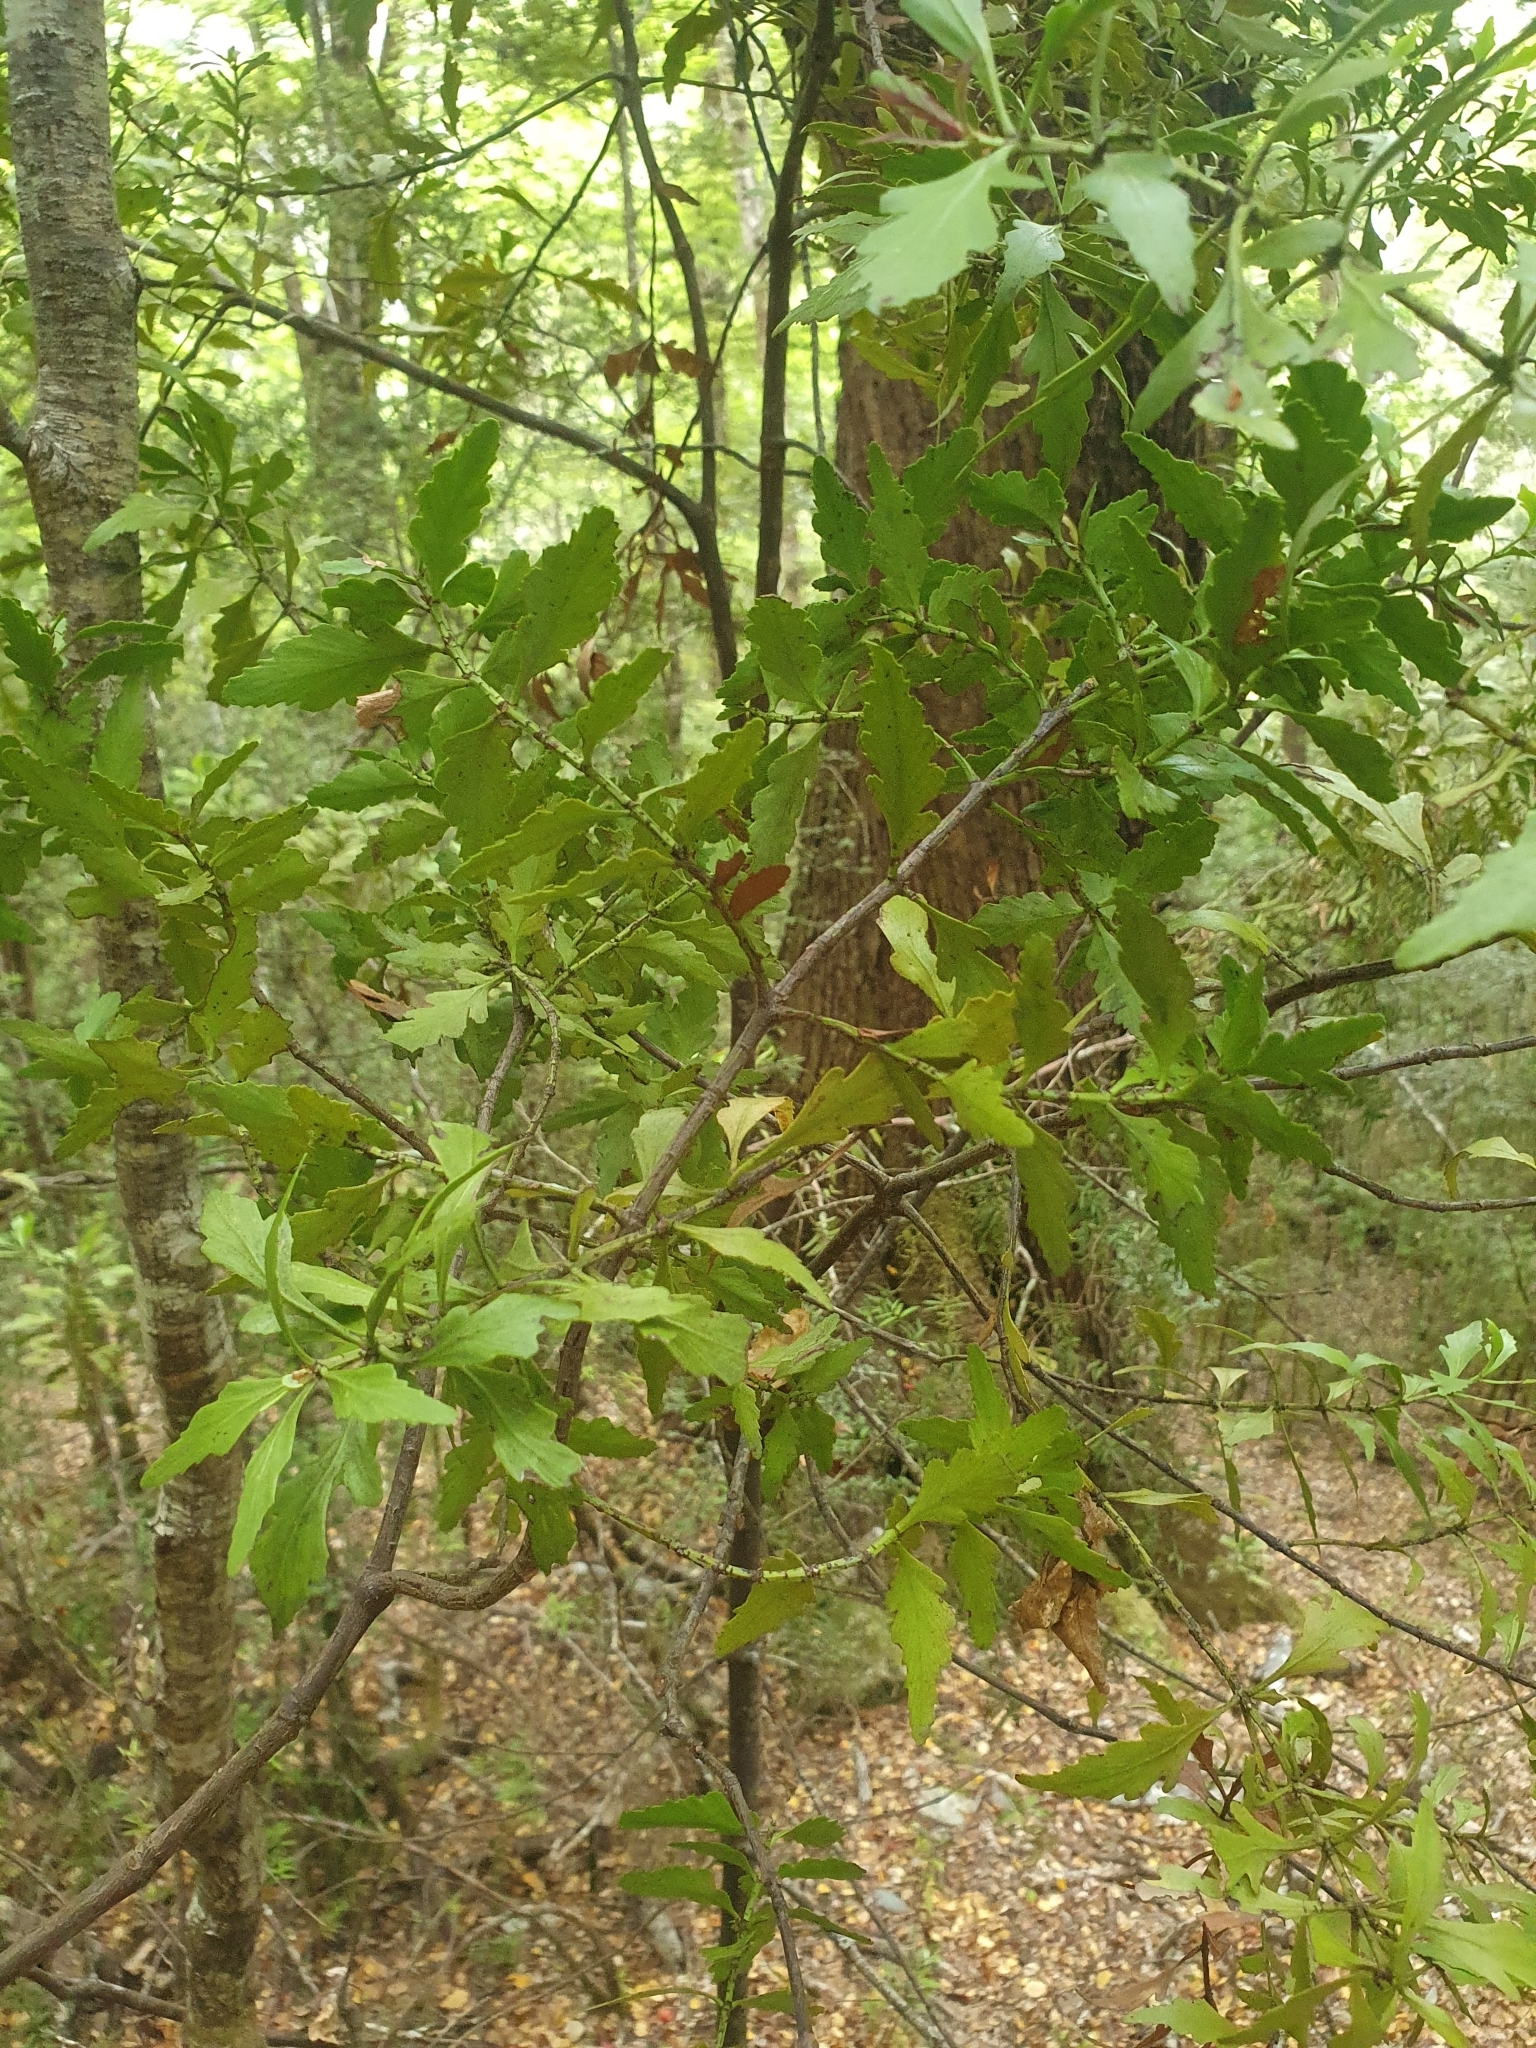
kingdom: Plantae
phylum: Tracheophyta
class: Pinopsida
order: Pinales
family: Phyllocladaceae
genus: Phyllocladus
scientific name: Phyllocladus trichomanoides
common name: Celery pine
